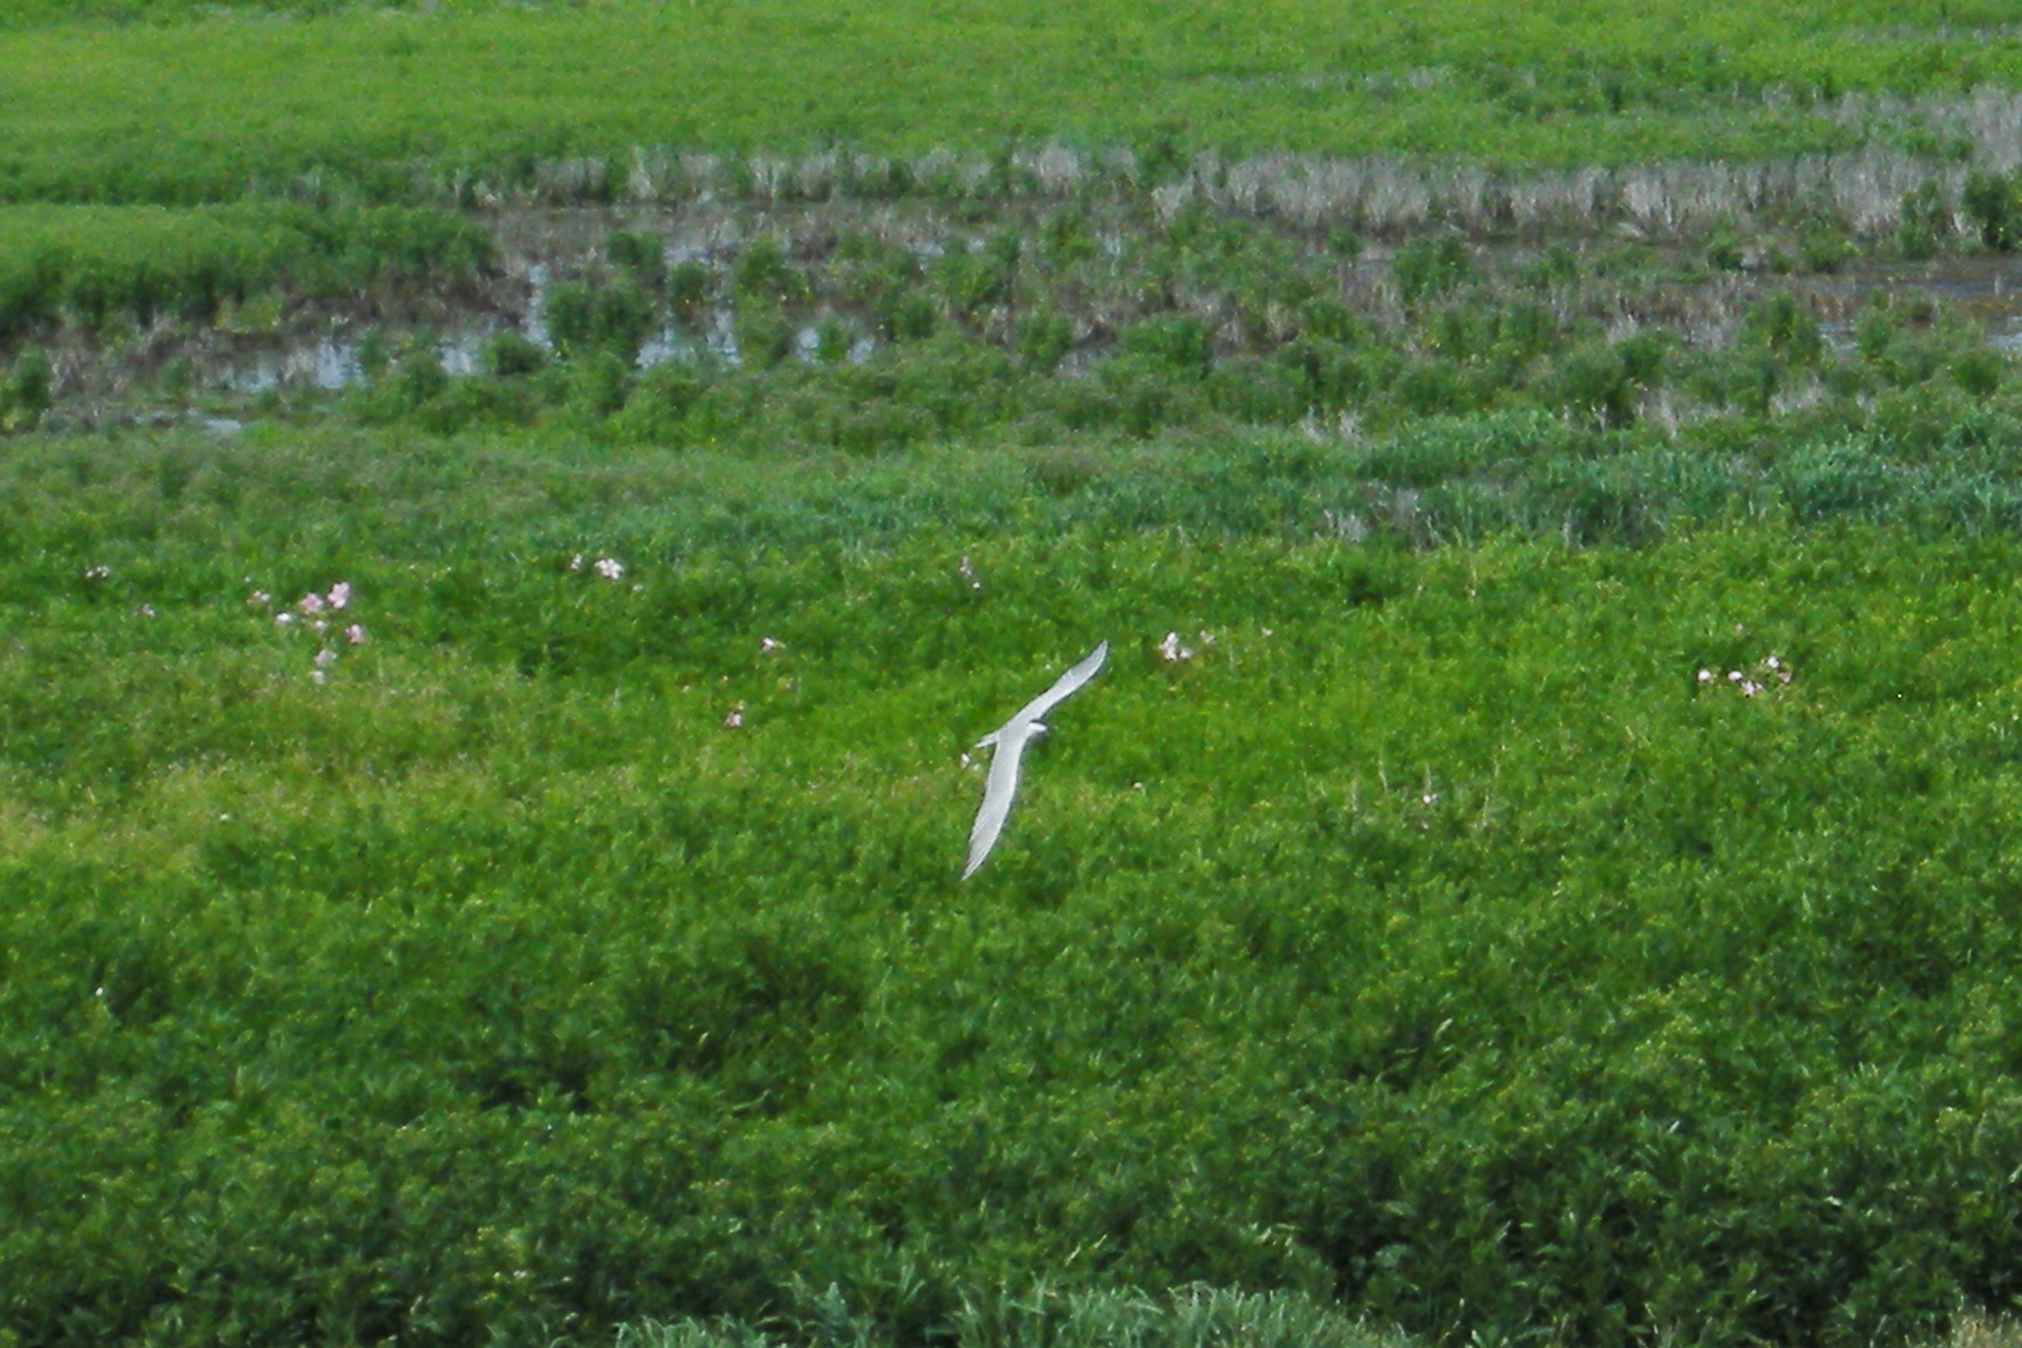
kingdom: Animalia
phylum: Chordata
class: Aves
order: Charadriiformes
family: Laridae
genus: Gelochelidon
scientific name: Gelochelidon nilotica
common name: Gull-billed tern
